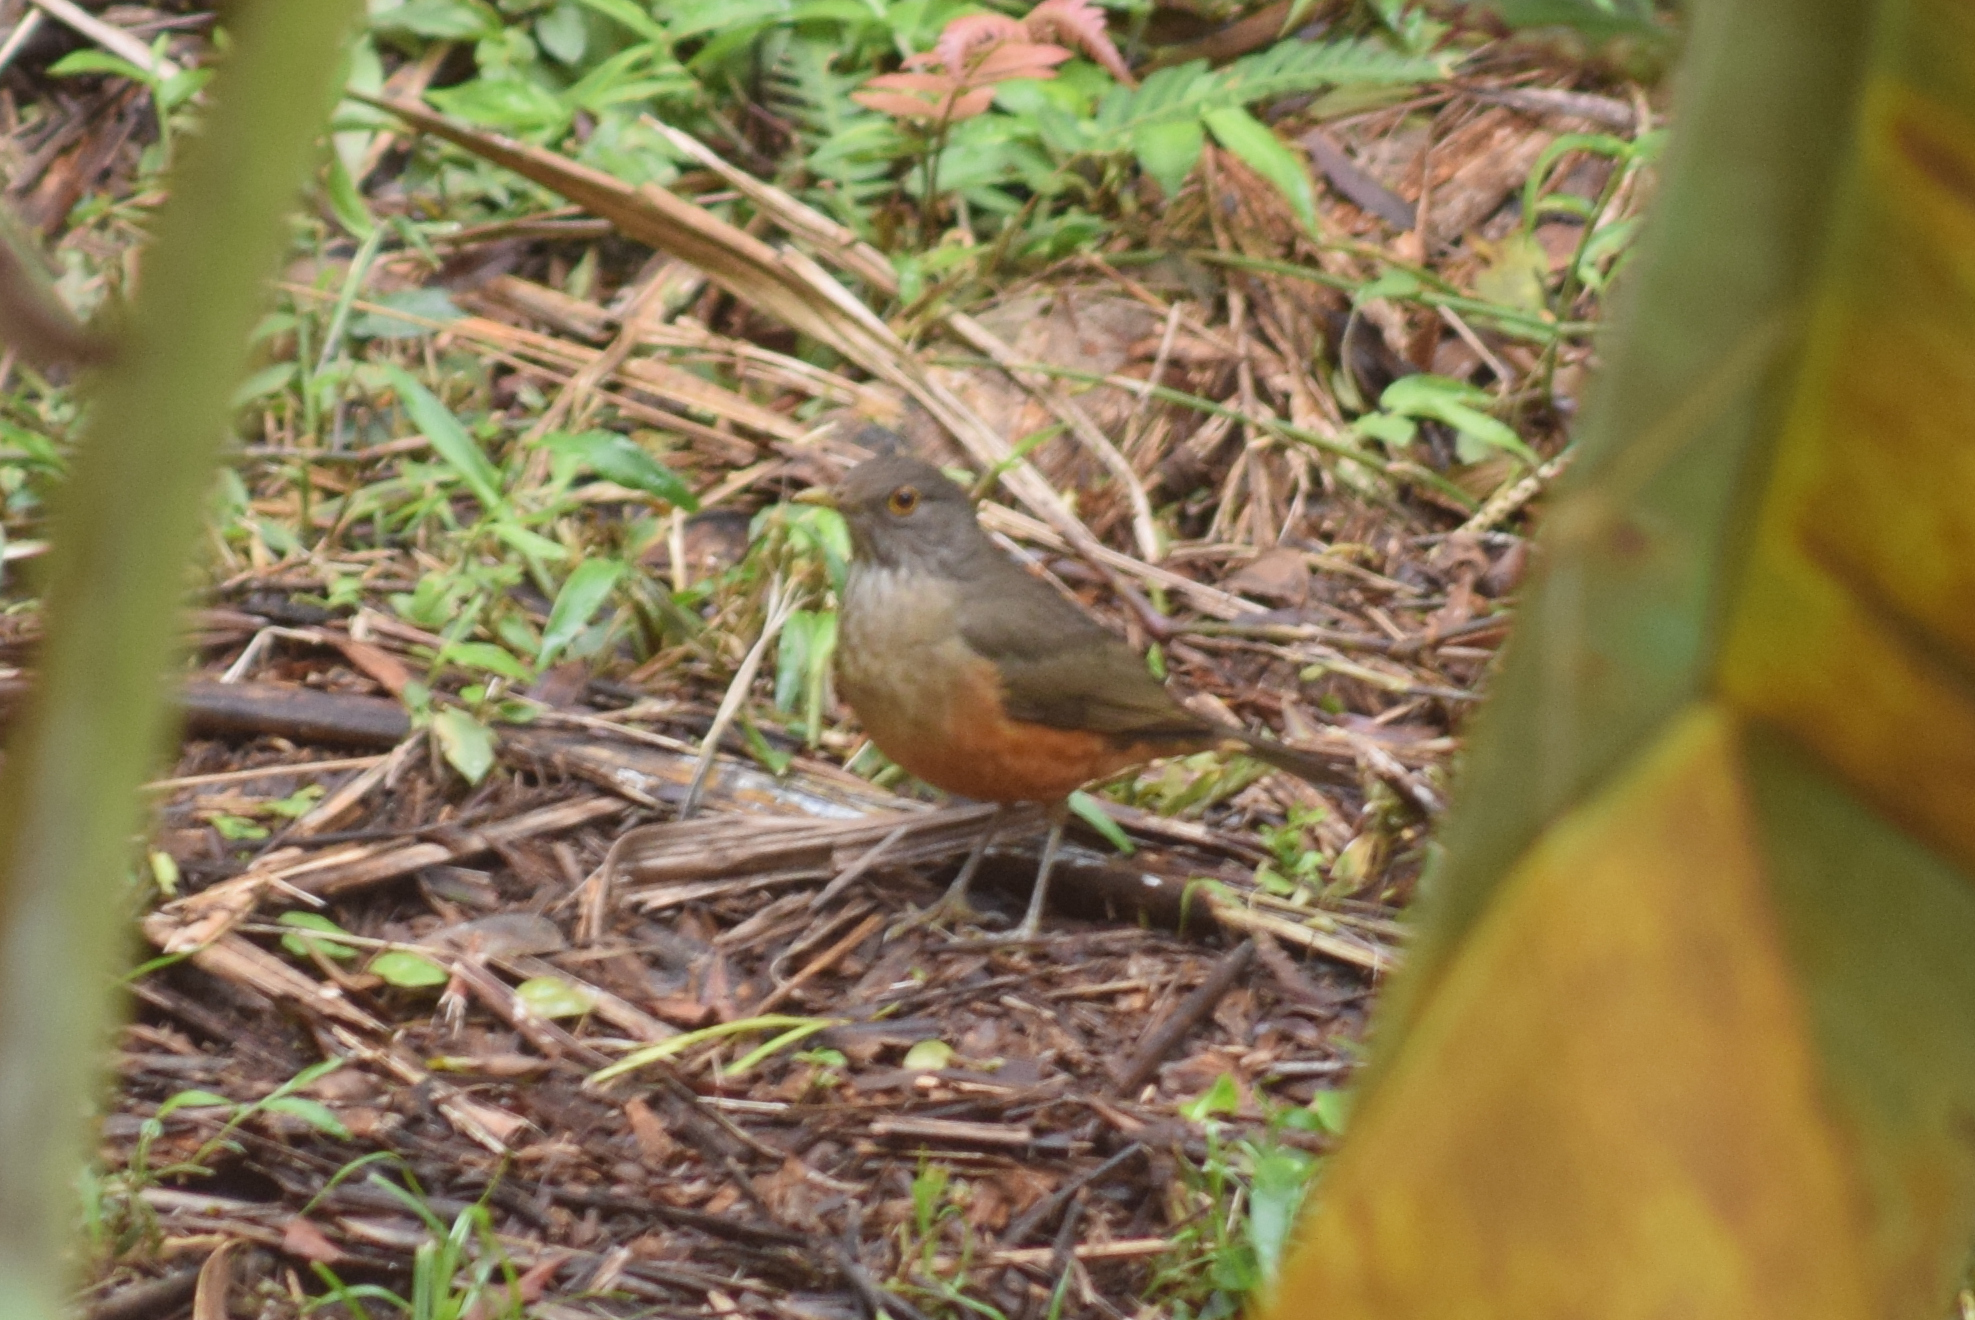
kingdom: Animalia
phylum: Chordata
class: Aves
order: Passeriformes
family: Turdidae
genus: Turdus
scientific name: Turdus rufiventris
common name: Rufous-bellied thrush
